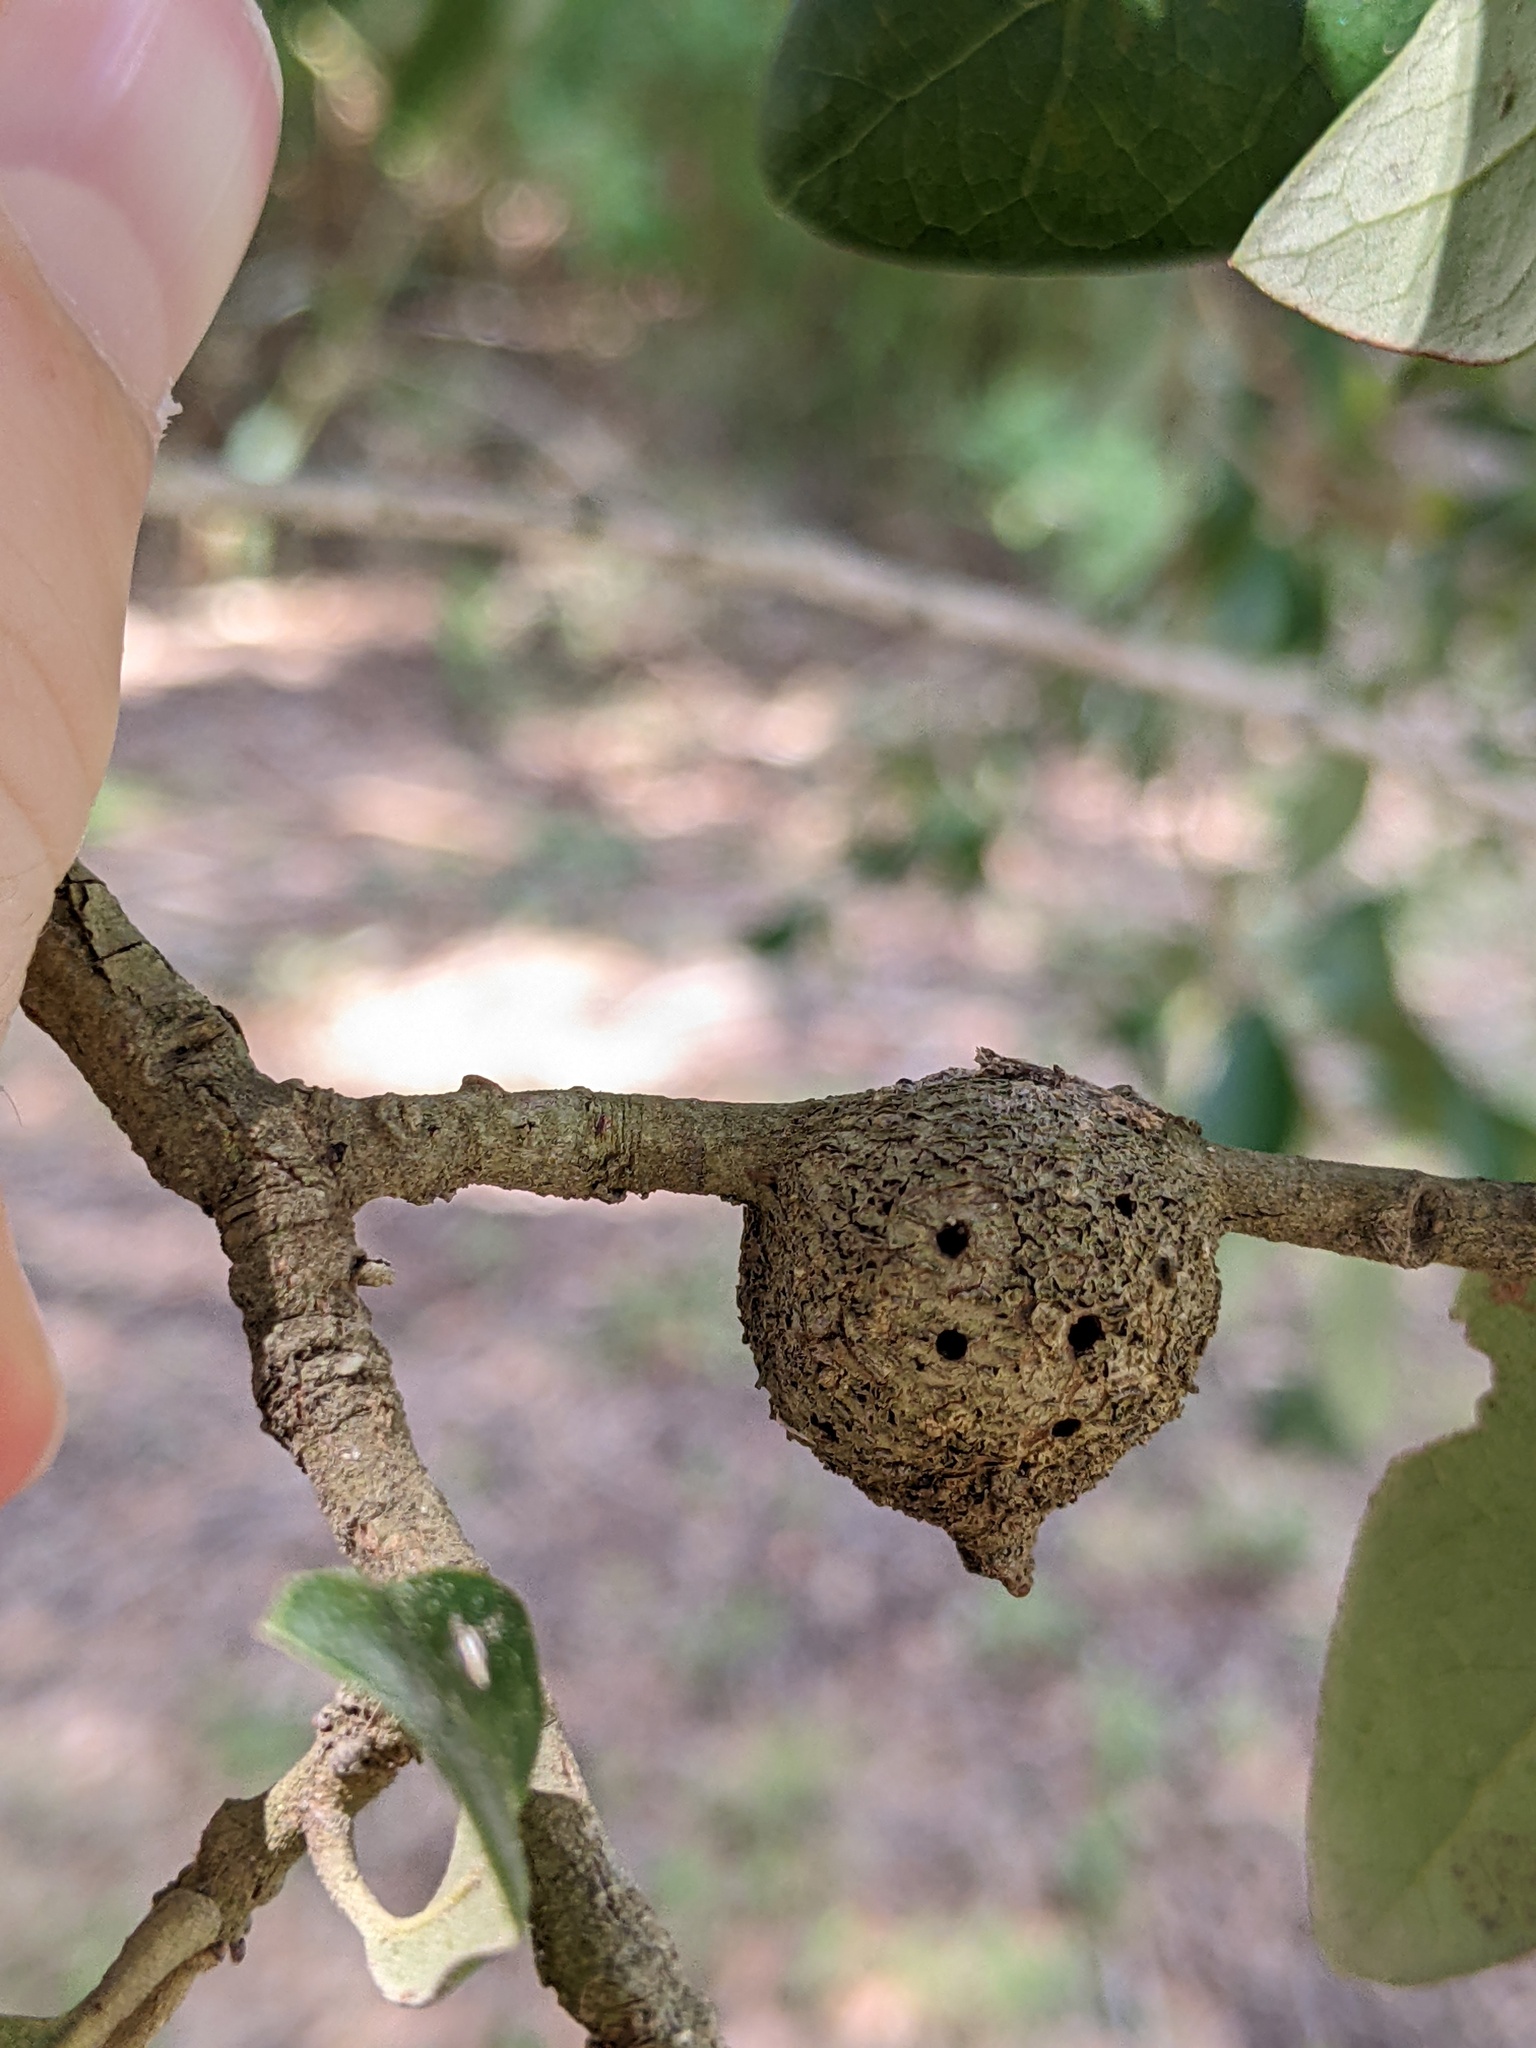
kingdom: Animalia
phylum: Arthropoda
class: Insecta
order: Hymenoptera
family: Cynipidae
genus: Callirhytis
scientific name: Callirhytis
